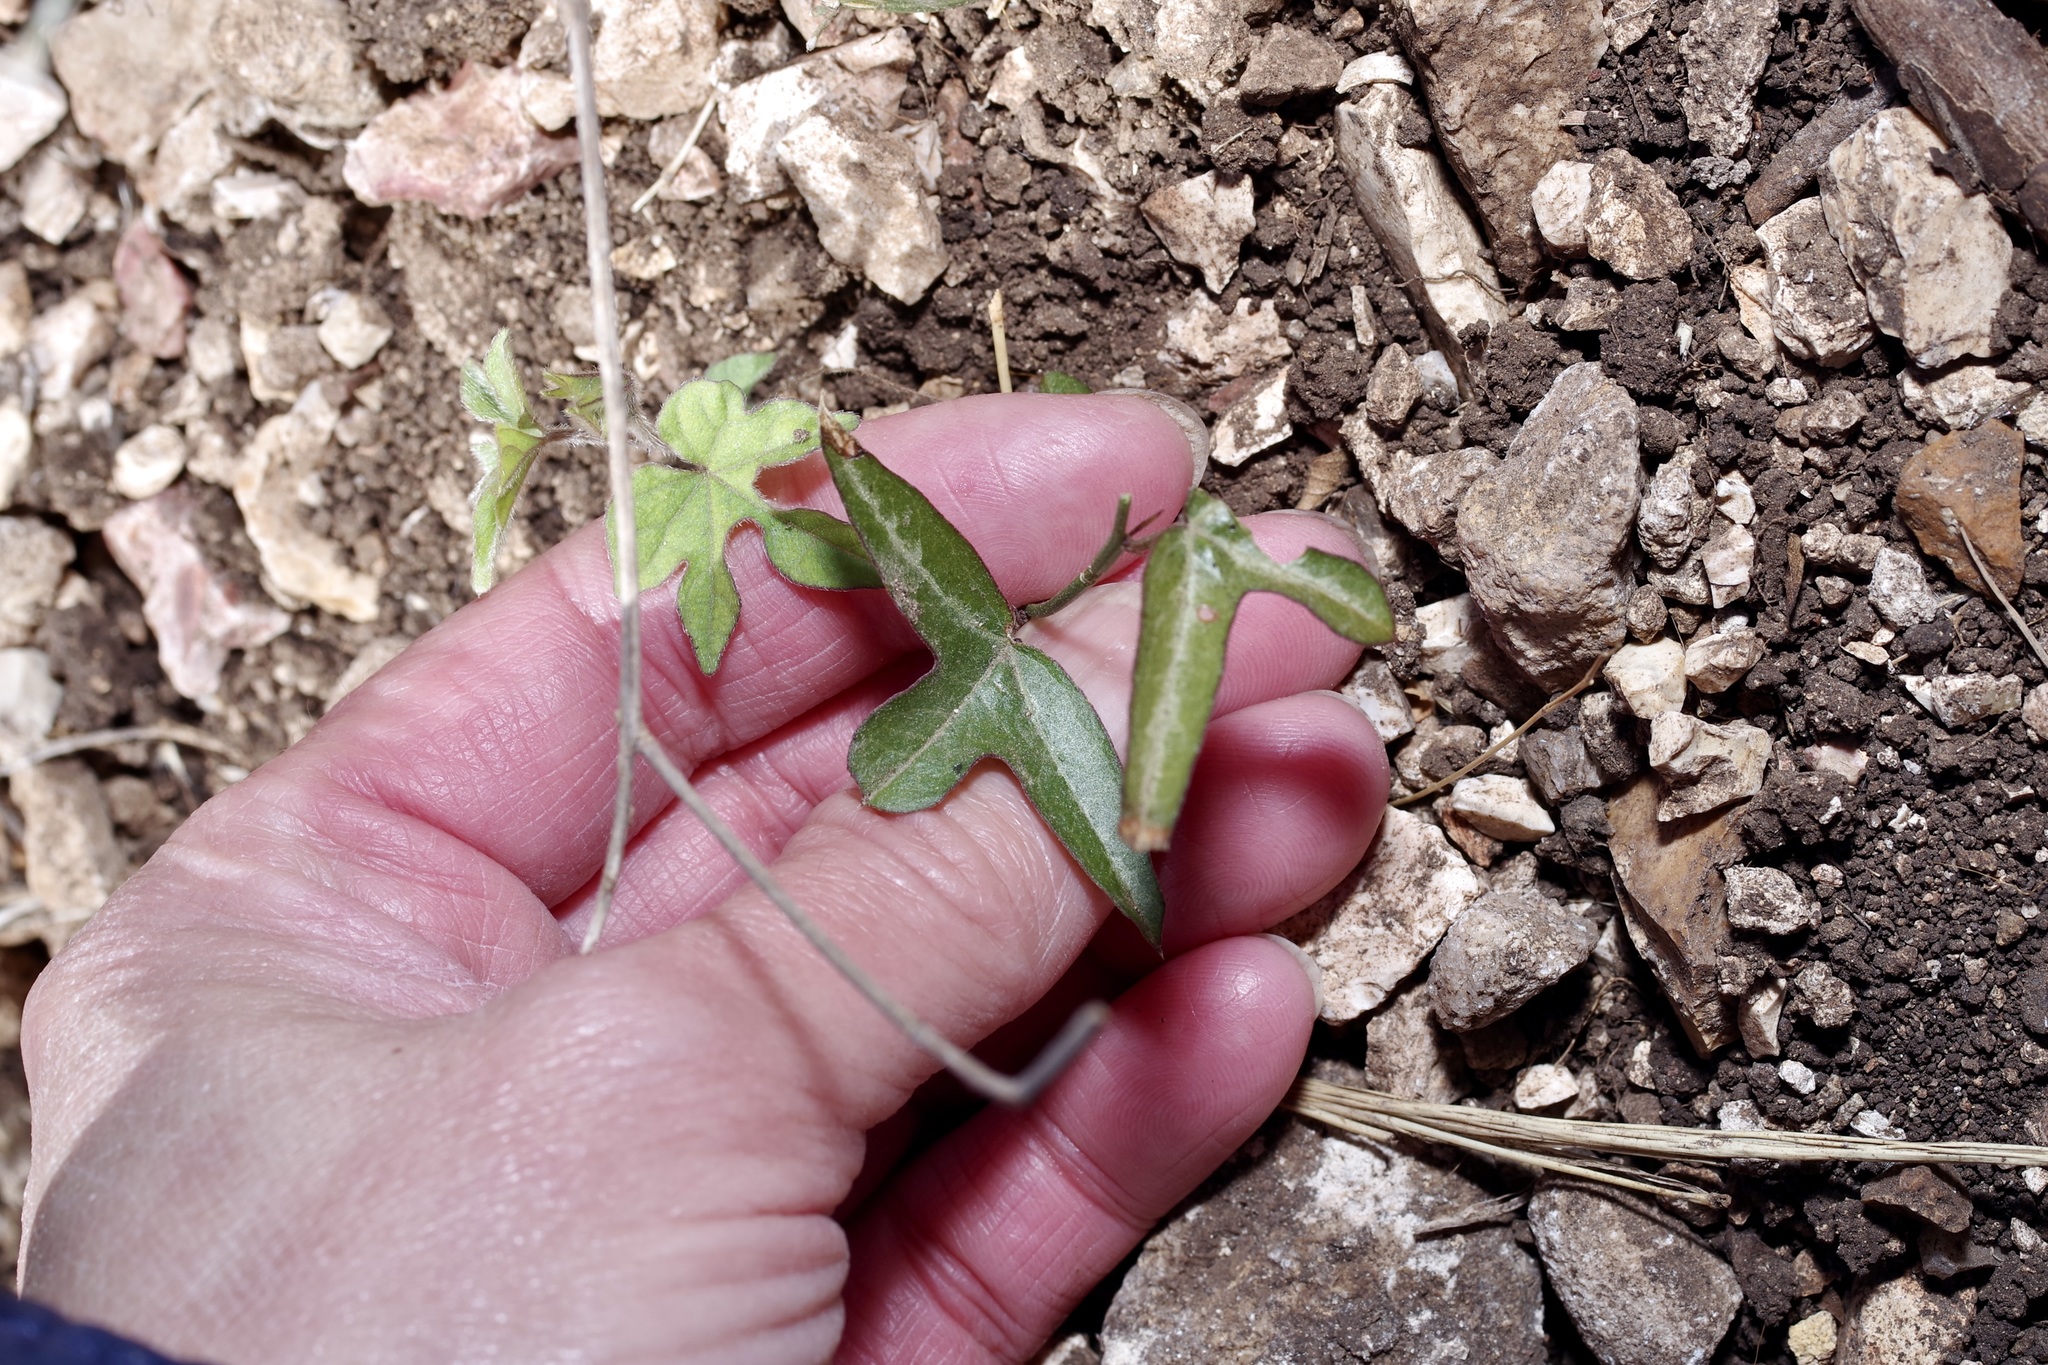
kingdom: Plantae
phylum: Tracheophyta
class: Magnoliopsida
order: Malpighiales
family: Passifloraceae
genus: Passiflora
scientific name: Passiflora tenuiloba
